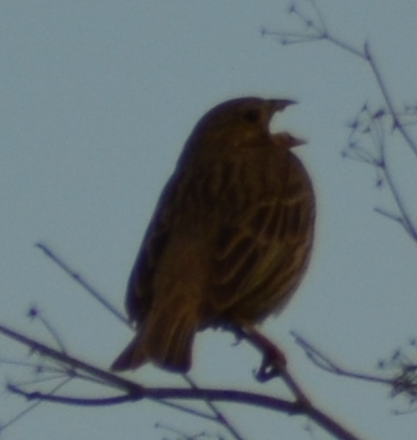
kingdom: Animalia
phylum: Chordata
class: Aves
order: Passeriformes
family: Emberizidae
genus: Emberiza
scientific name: Emberiza calandra
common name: Corn bunting
